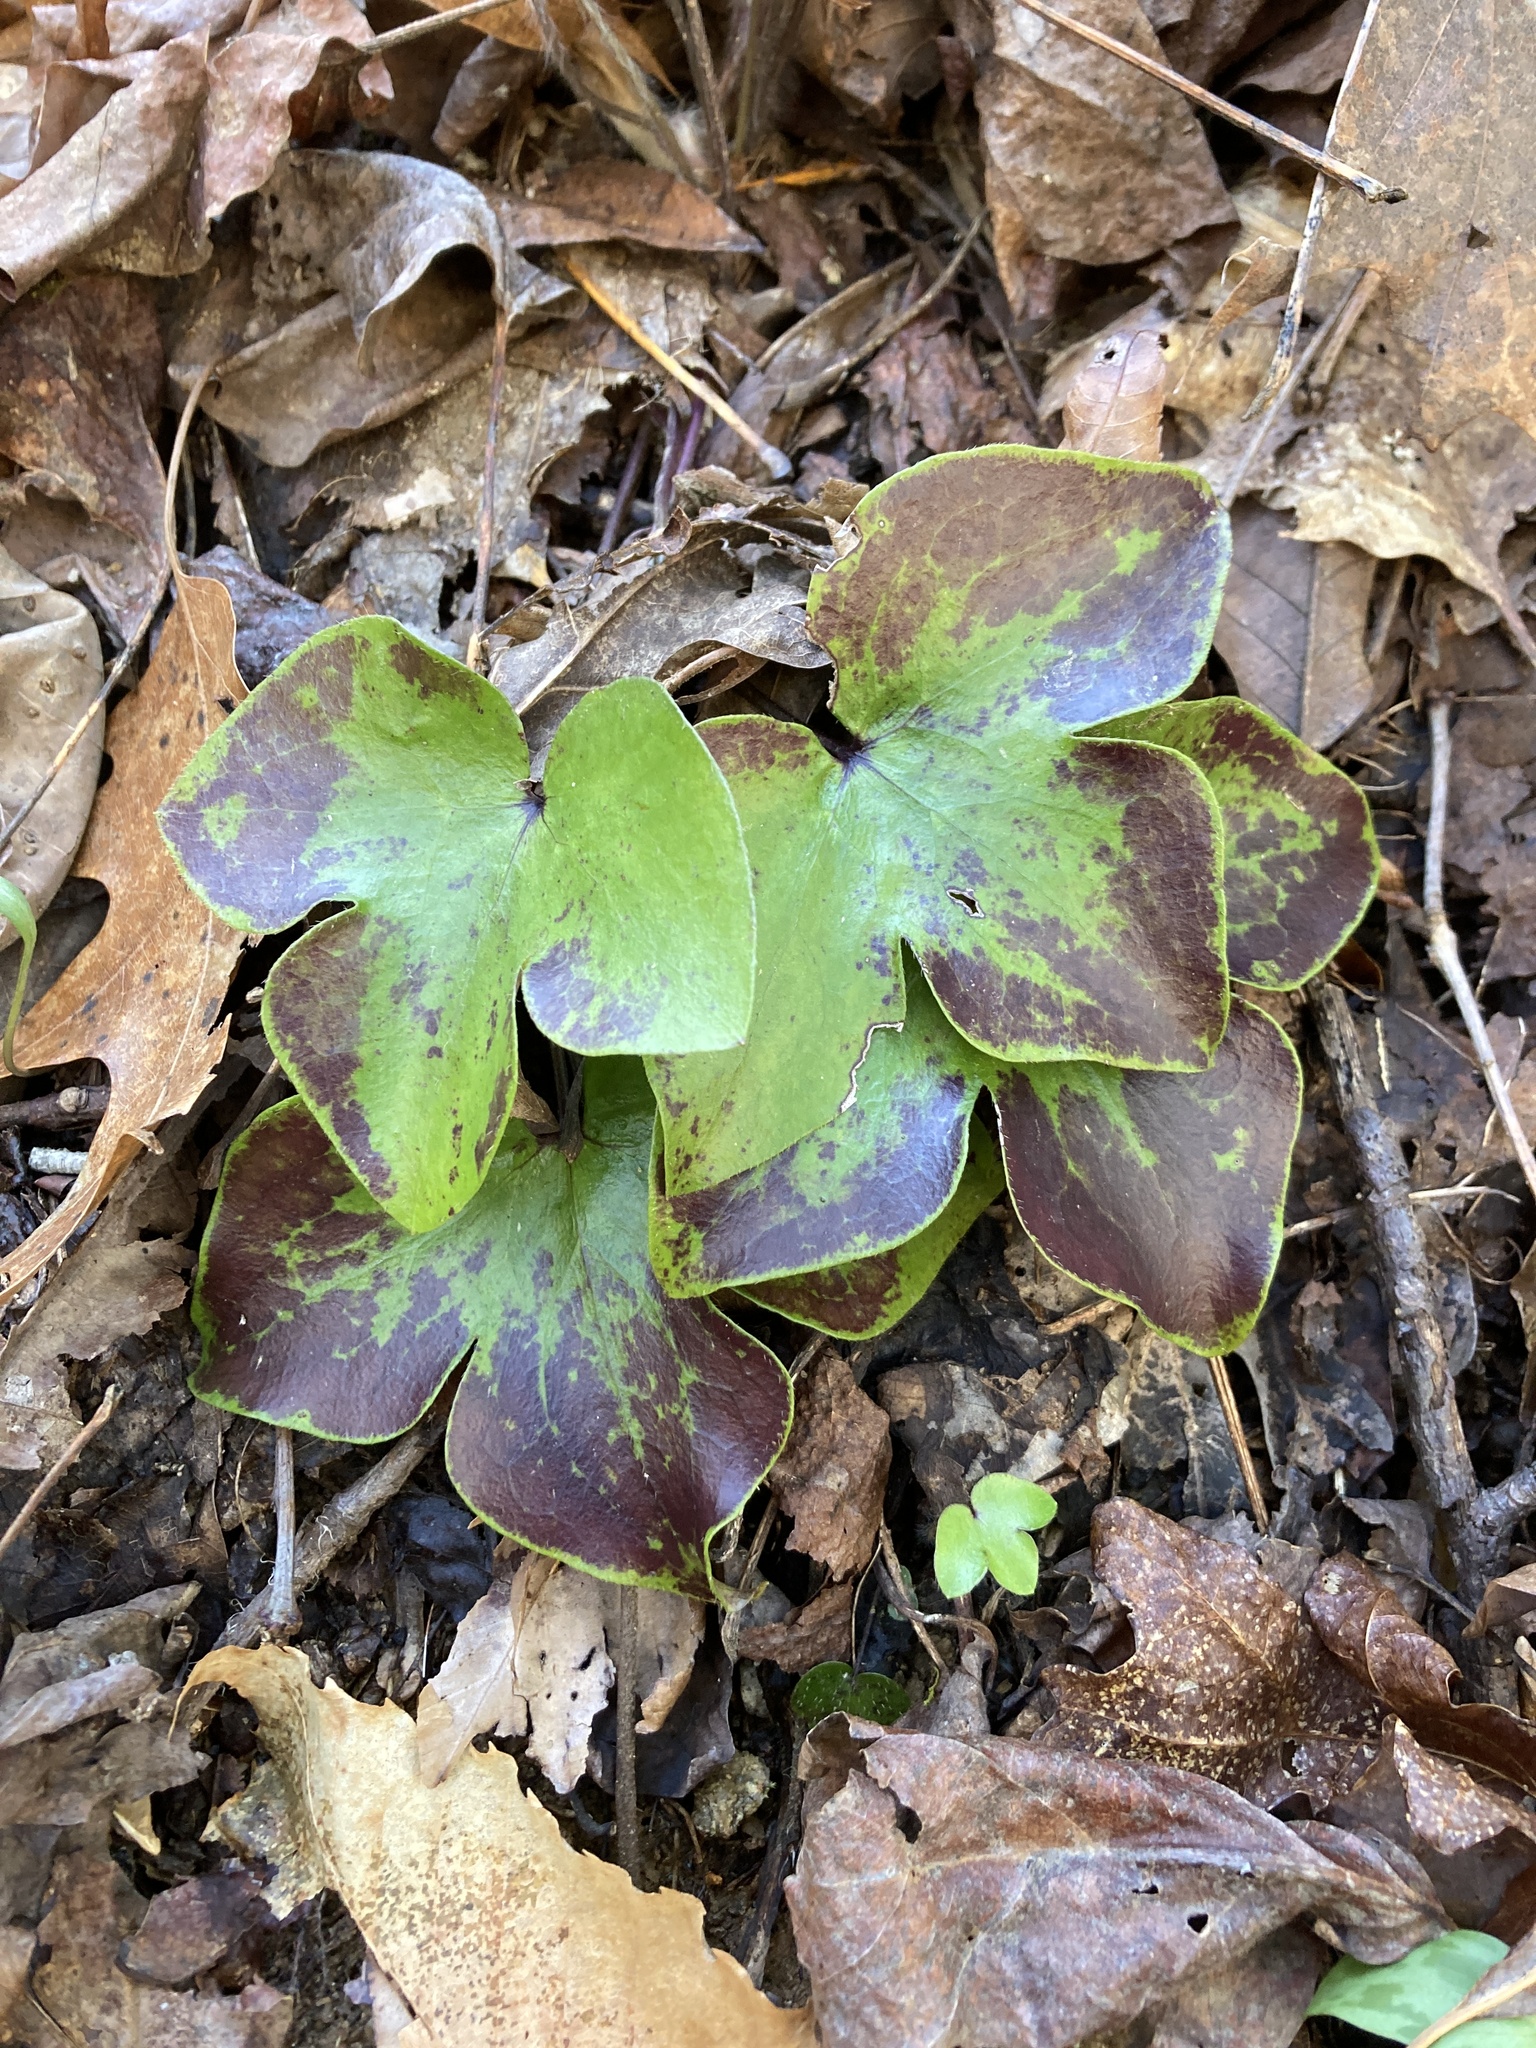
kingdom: Plantae
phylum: Tracheophyta
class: Magnoliopsida
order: Ranunculales
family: Ranunculaceae
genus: Hepatica
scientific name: Hepatica acutiloba
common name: Sharp-lobed hepatica
